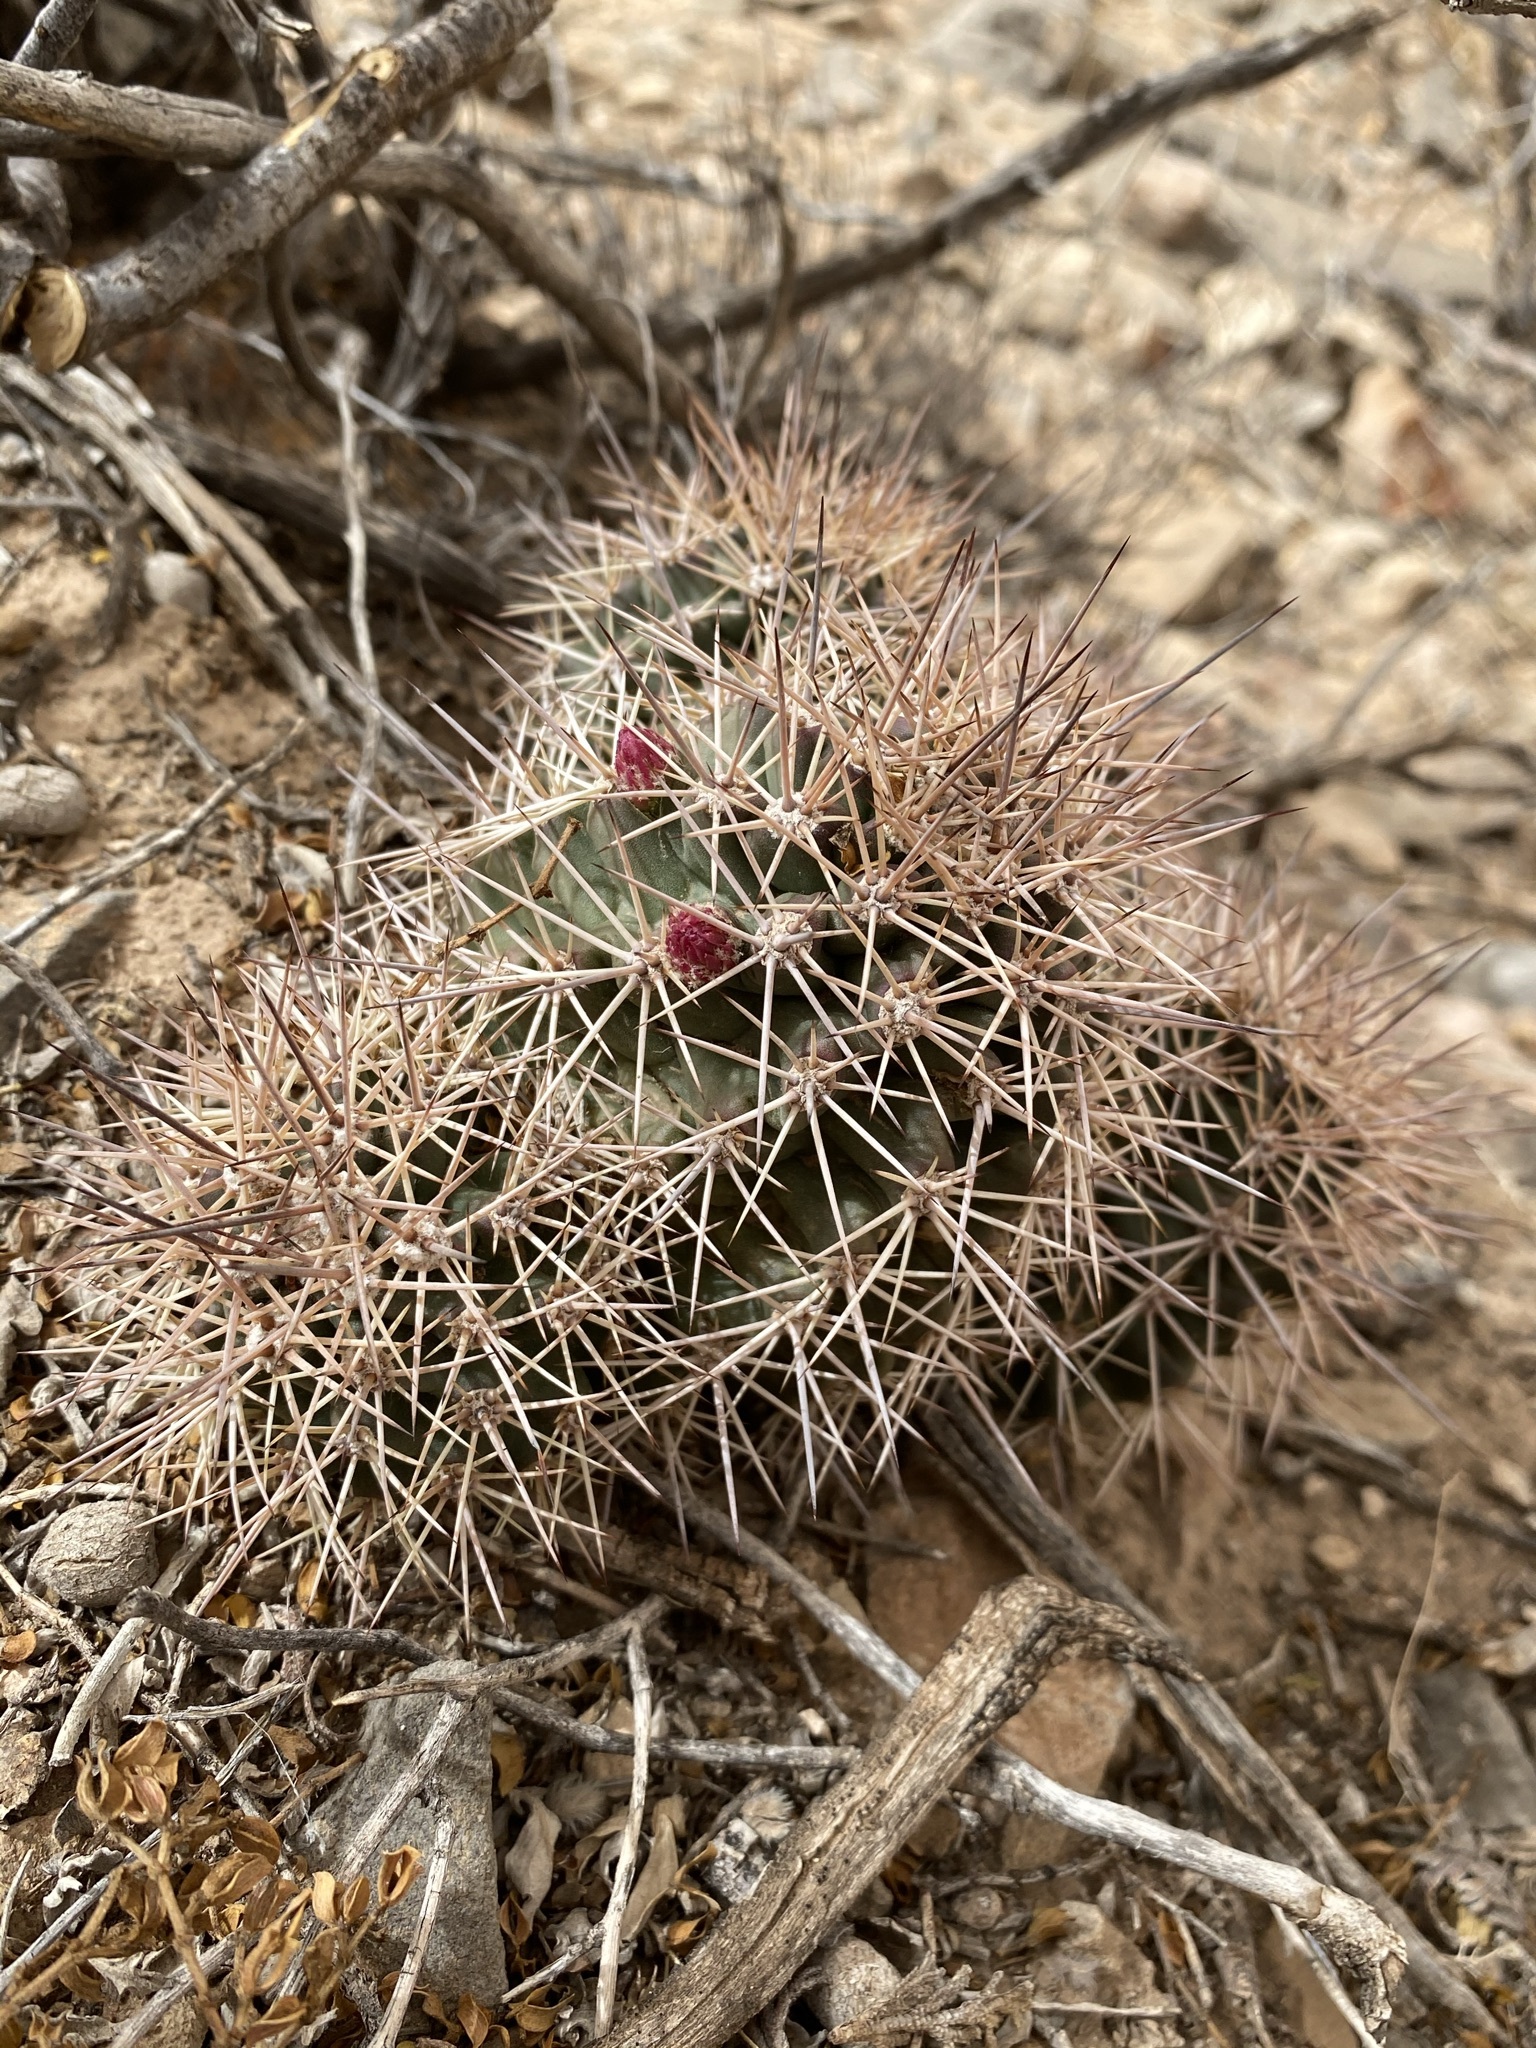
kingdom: Plantae
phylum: Tracheophyta
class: Magnoliopsida
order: Caryophyllales
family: Cactaceae
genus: Echinocereus
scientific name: Echinocereus coccineus
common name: Scarlet hedgehog cactus
